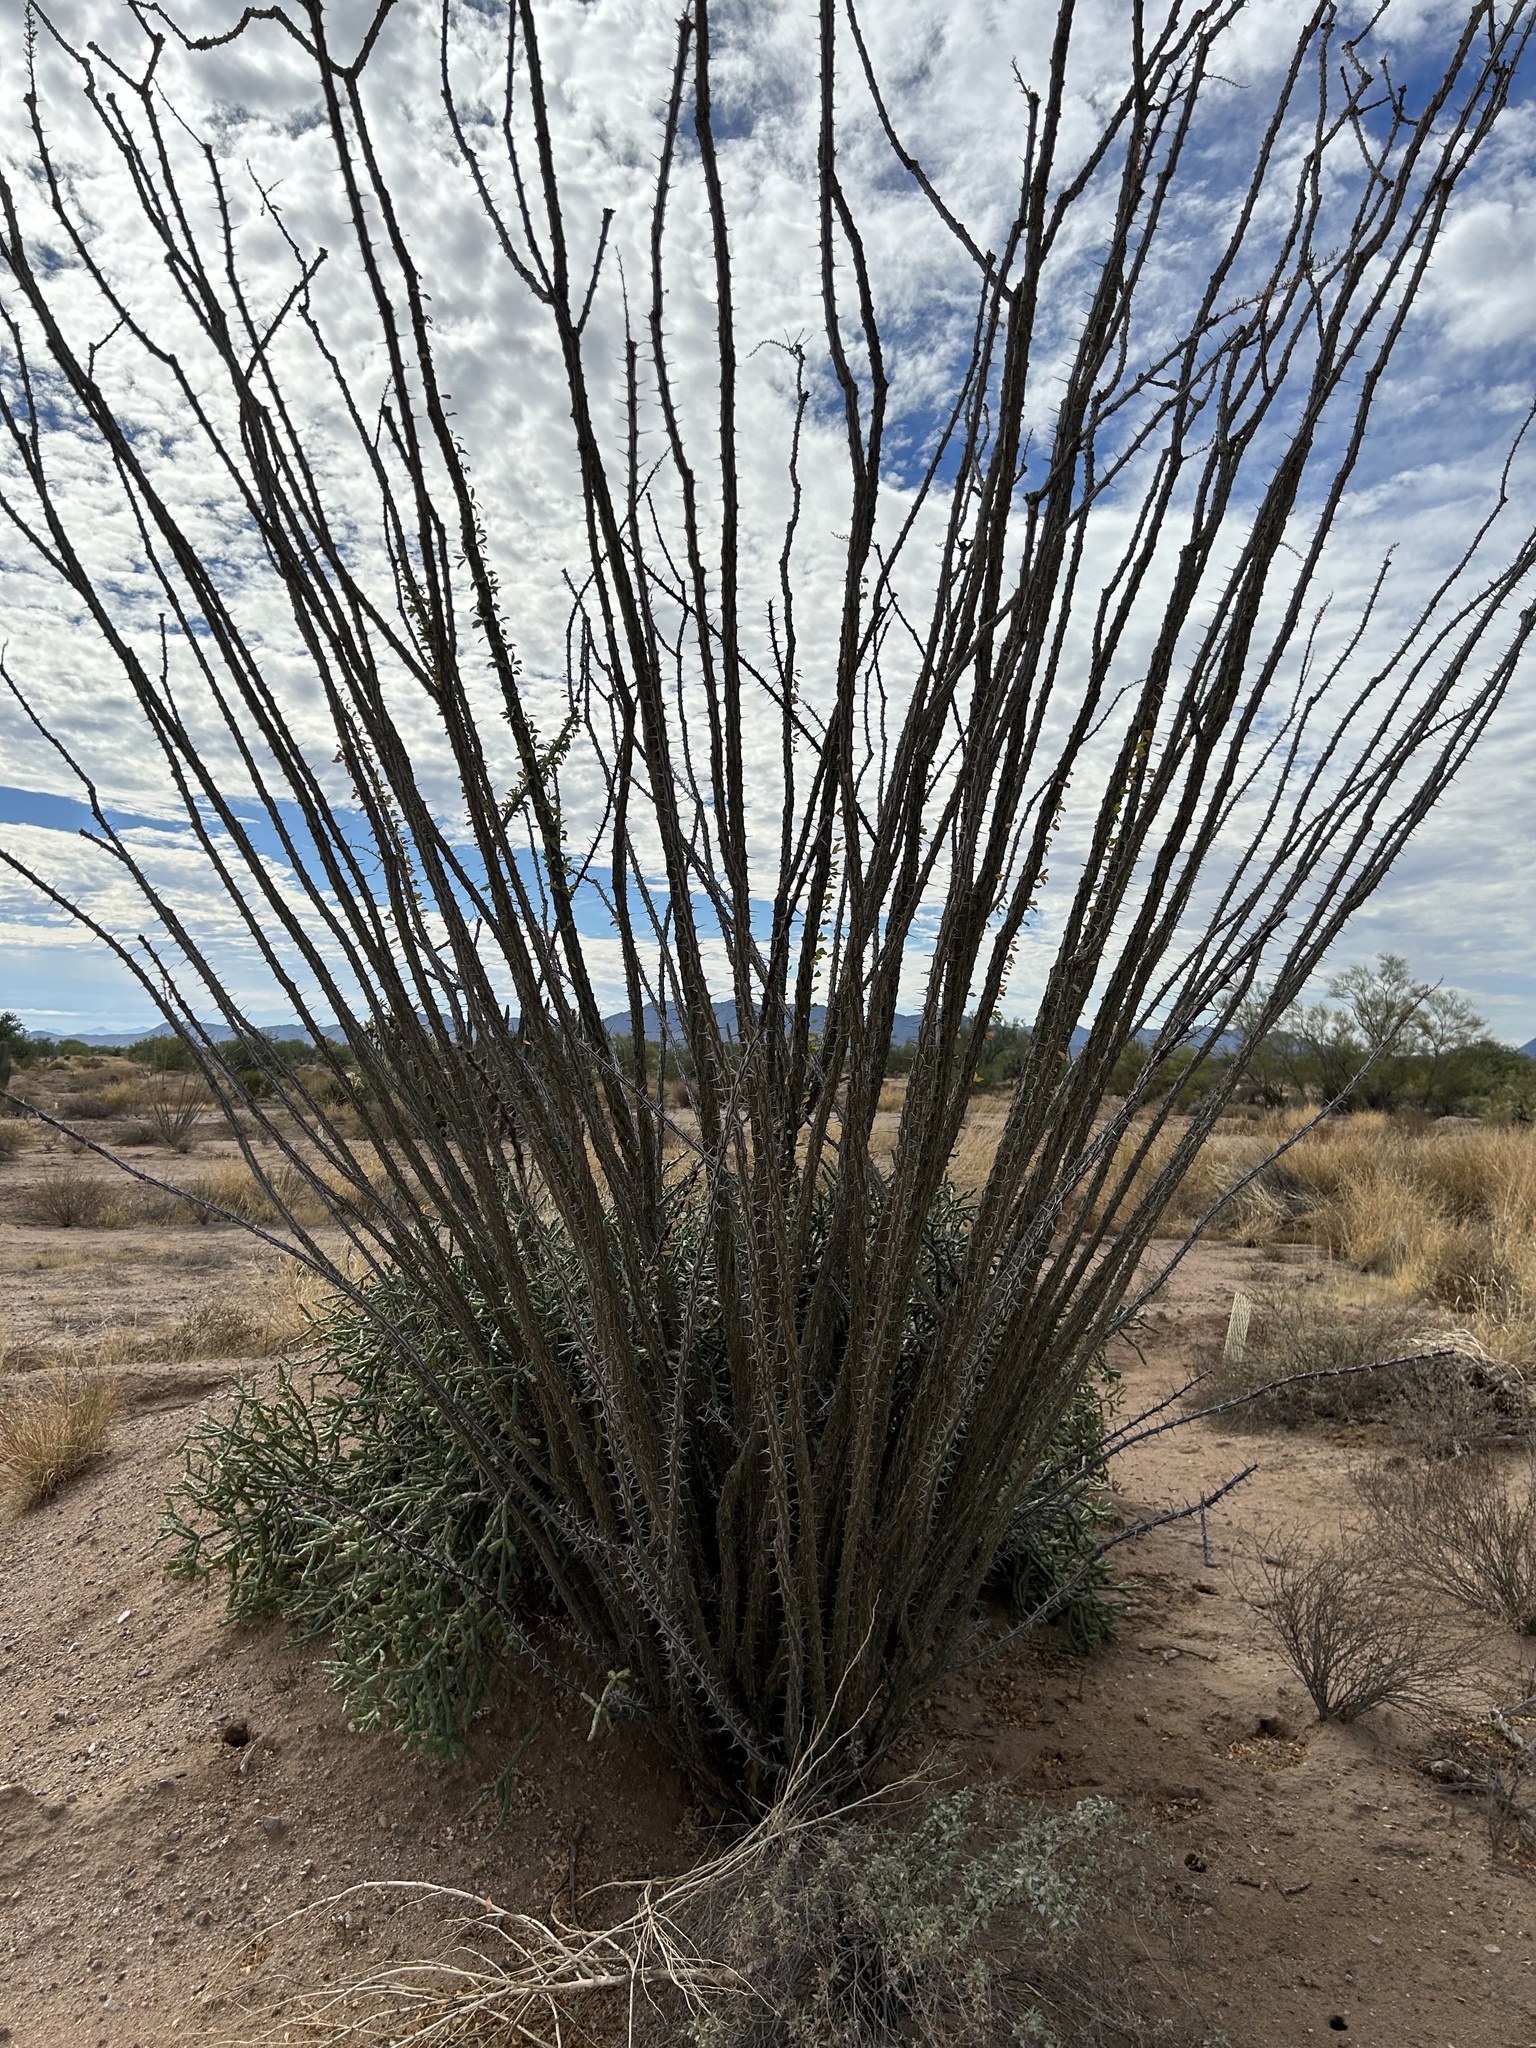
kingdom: Plantae
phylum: Tracheophyta
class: Magnoliopsida
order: Ericales
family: Fouquieriaceae
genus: Fouquieria
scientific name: Fouquieria splendens
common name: Vine-cactus
